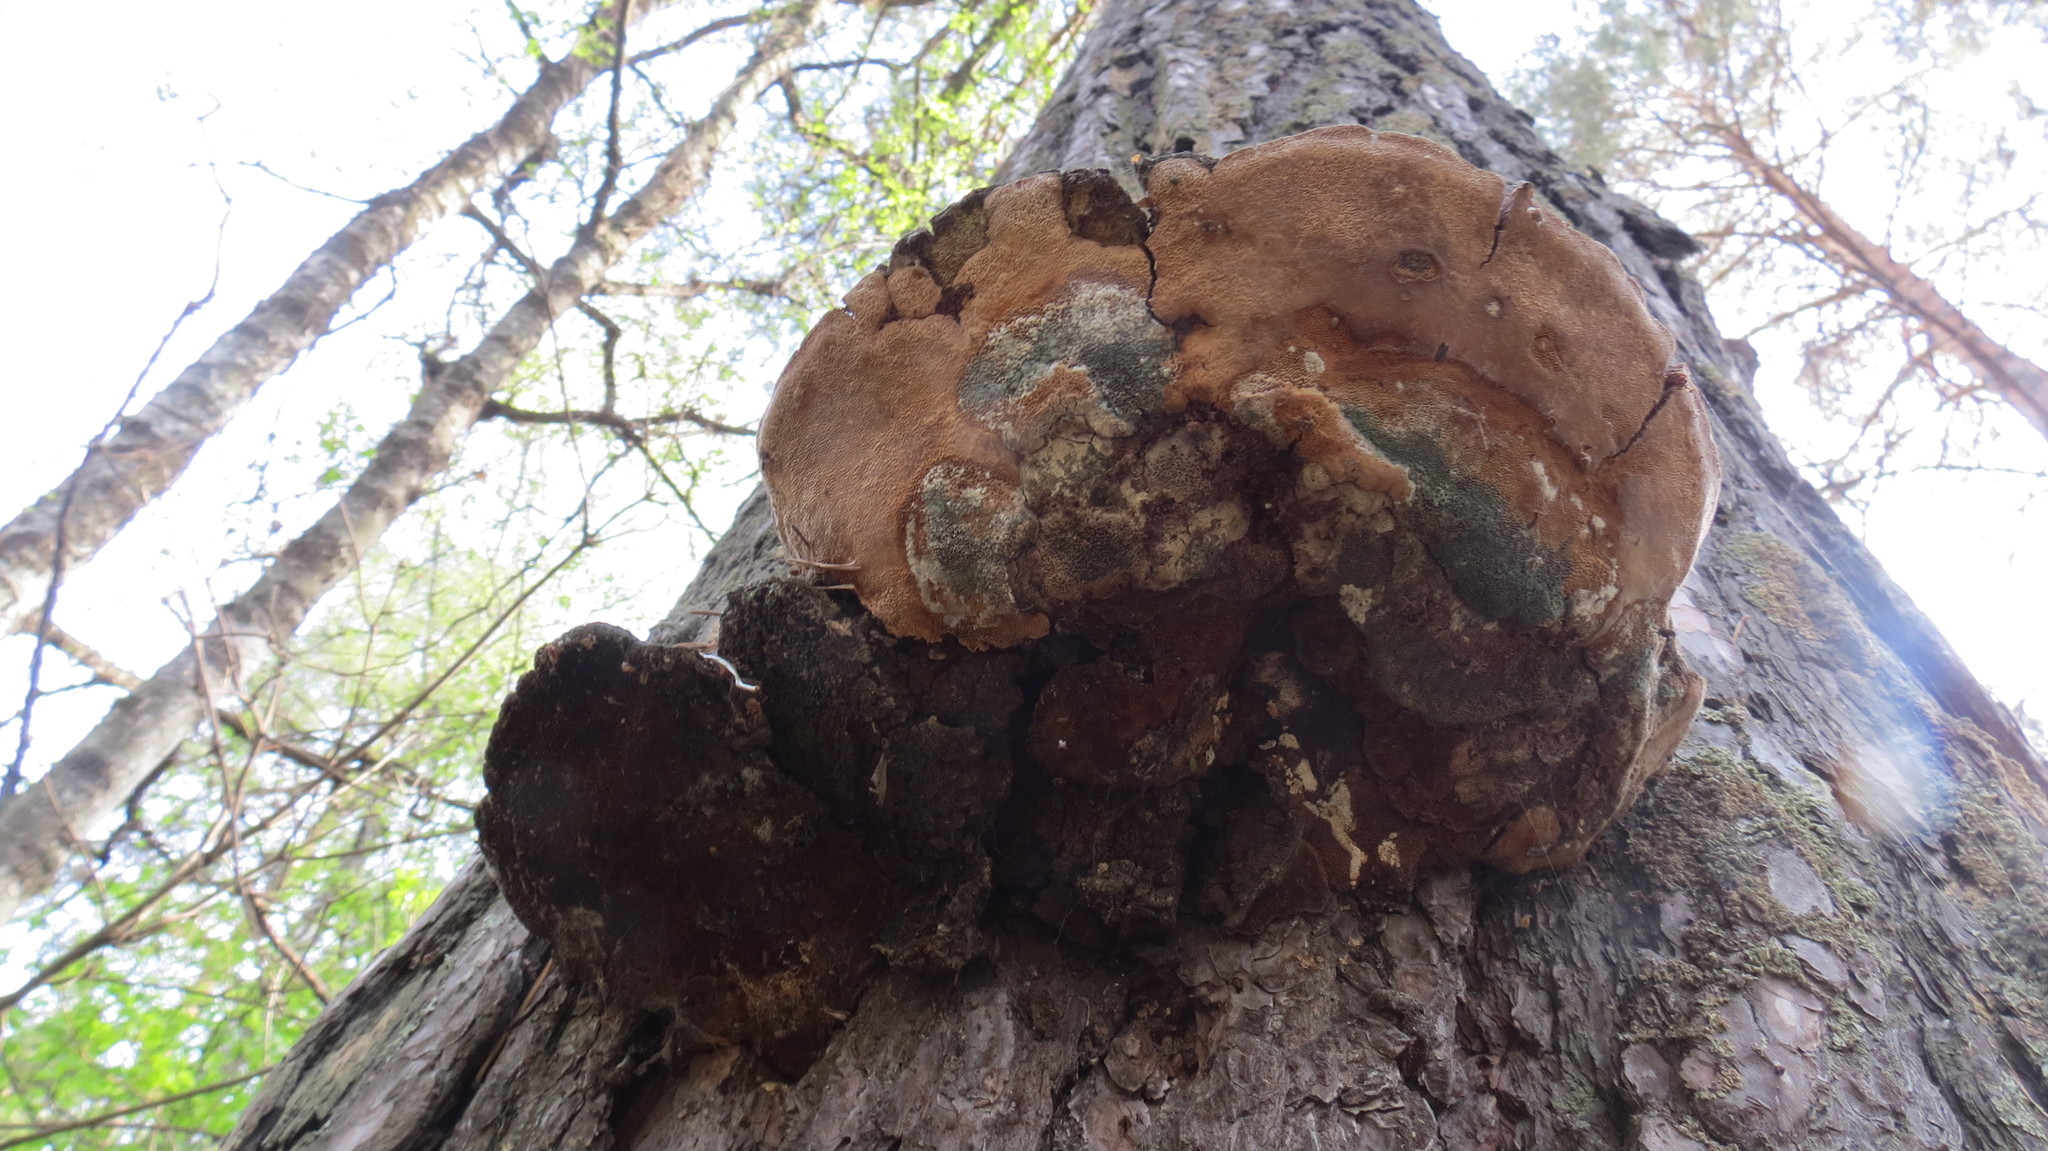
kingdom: Fungi
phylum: Basidiomycota
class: Agaricomycetes
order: Hymenochaetales
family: Hymenochaetaceae
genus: Porodaedalea
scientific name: Porodaedalea pini
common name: Pine bracket
